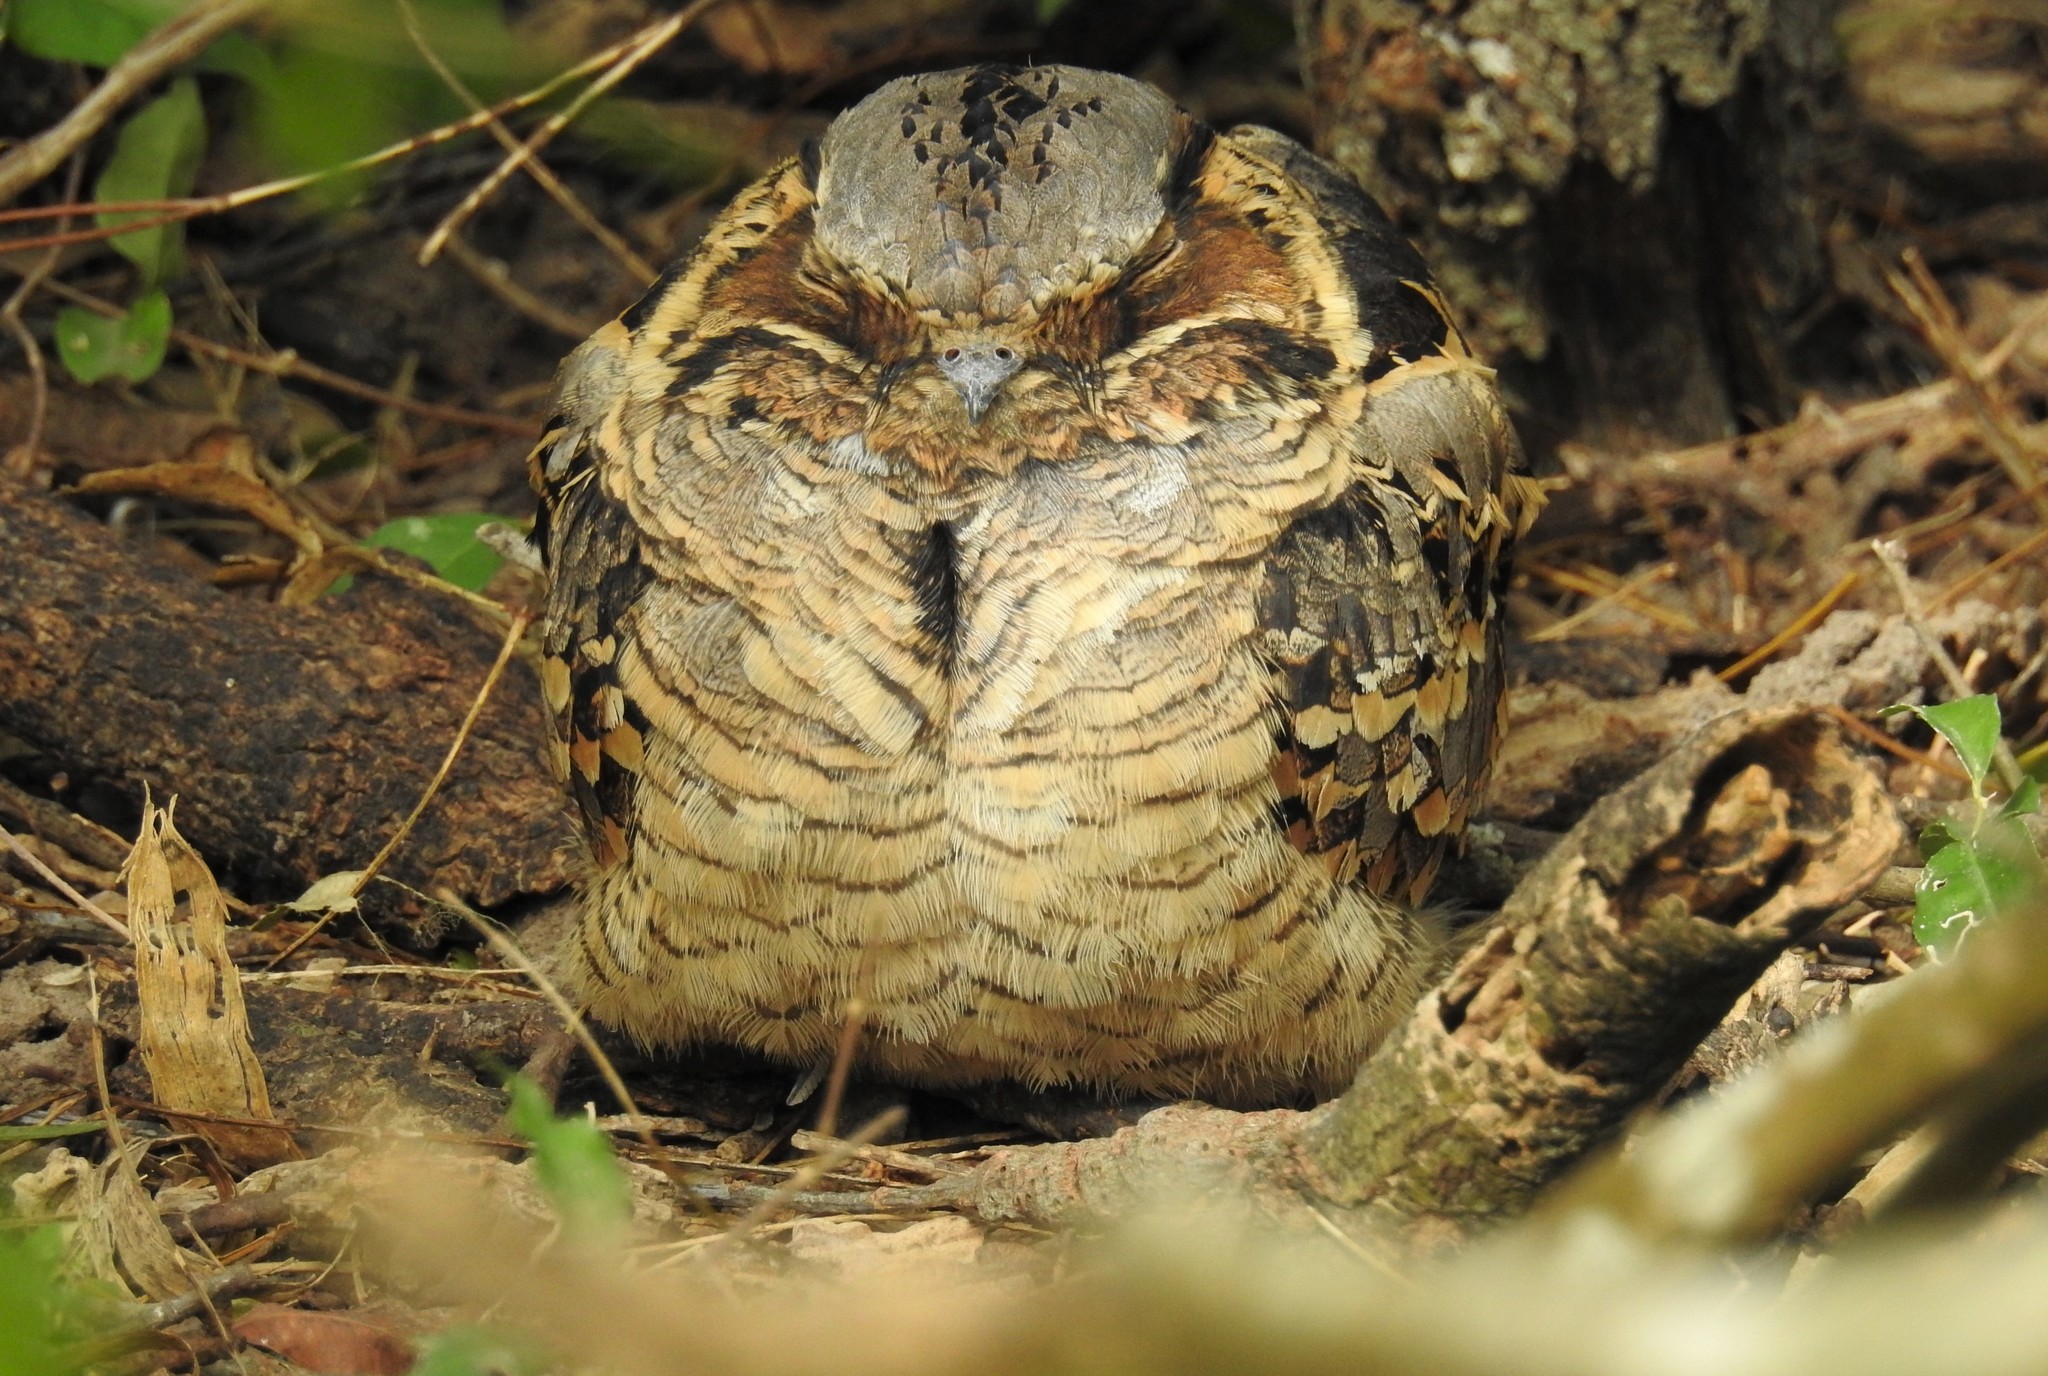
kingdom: Animalia
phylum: Chordata
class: Aves
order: Caprimulgiformes
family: Caprimulgidae
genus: Nyctidromus
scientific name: Nyctidromus albicollis
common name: Pauraque
